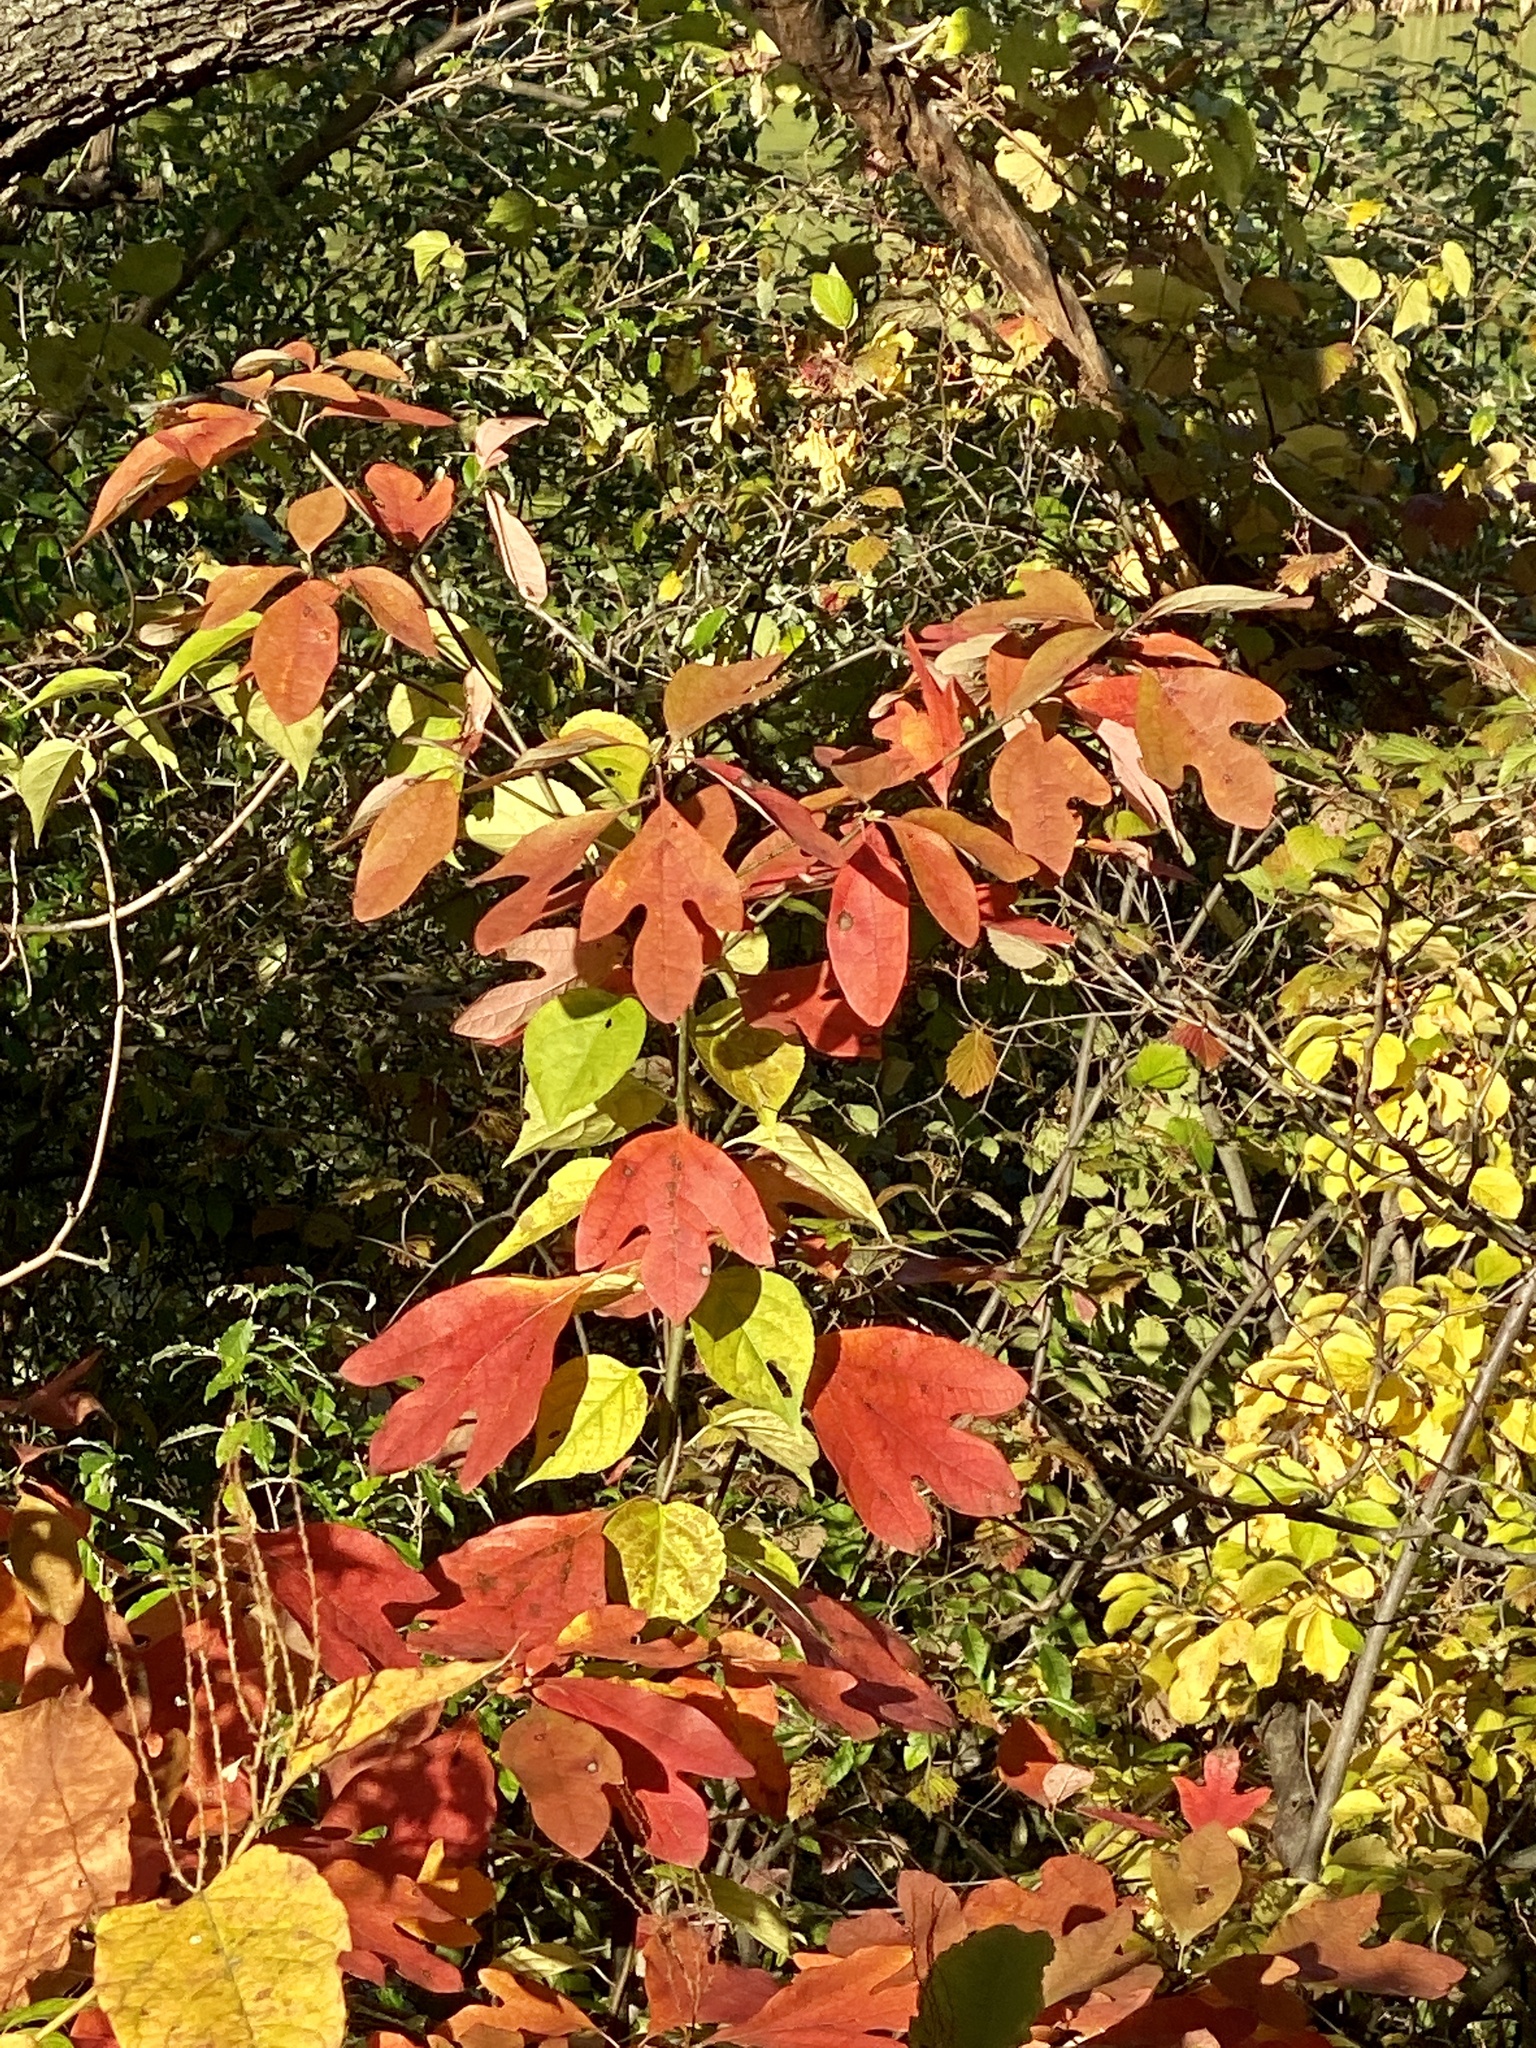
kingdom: Plantae
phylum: Tracheophyta
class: Magnoliopsida
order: Laurales
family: Lauraceae
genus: Sassafras
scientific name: Sassafras albidum
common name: Sassafras
